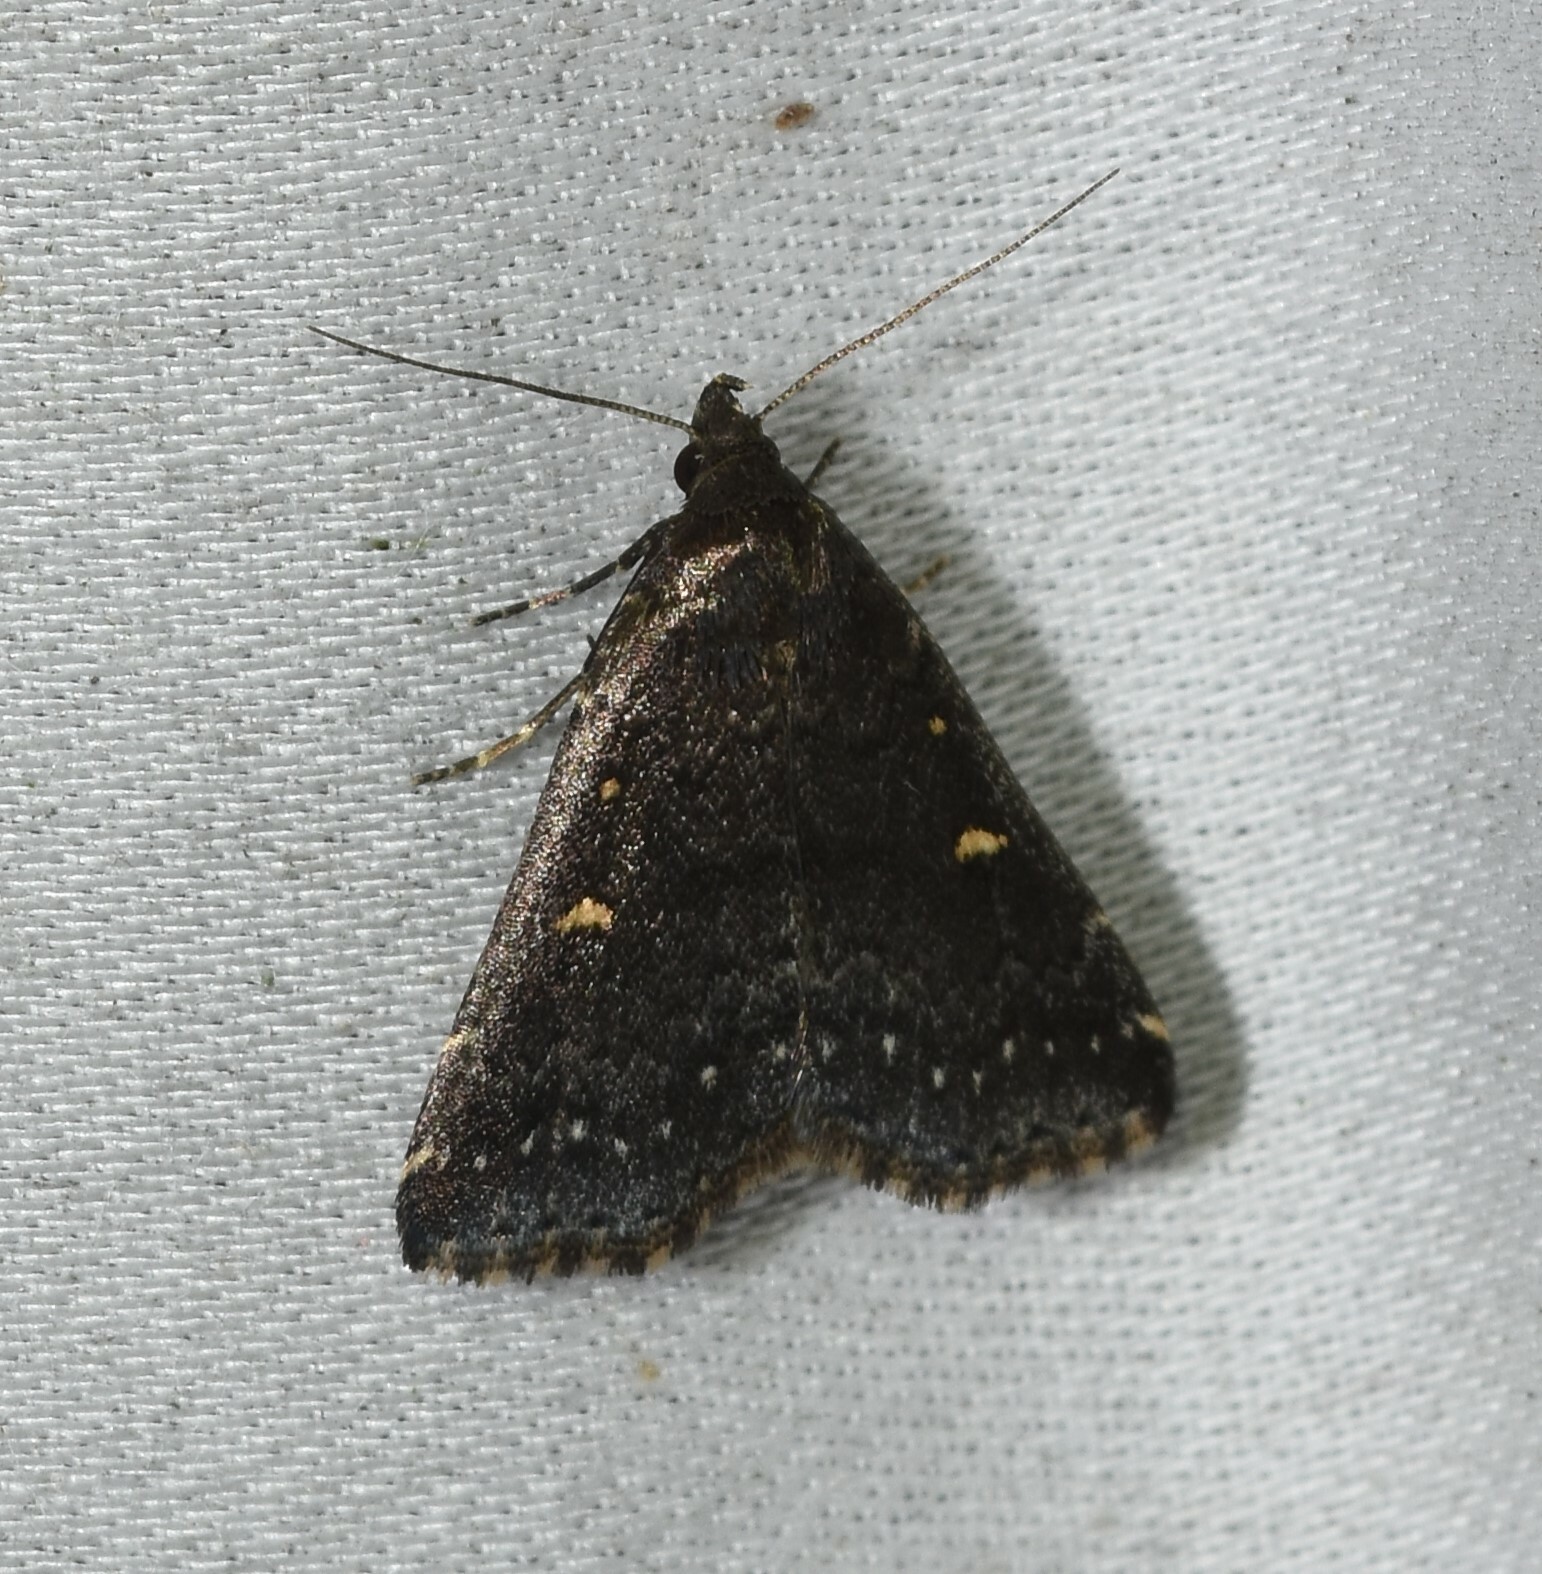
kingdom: Animalia
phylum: Arthropoda
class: Insecta
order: Lepidoptera
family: Erebidae
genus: Tetanolita
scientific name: Tetanolita mynesalis
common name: Smoky tetanolita moth
